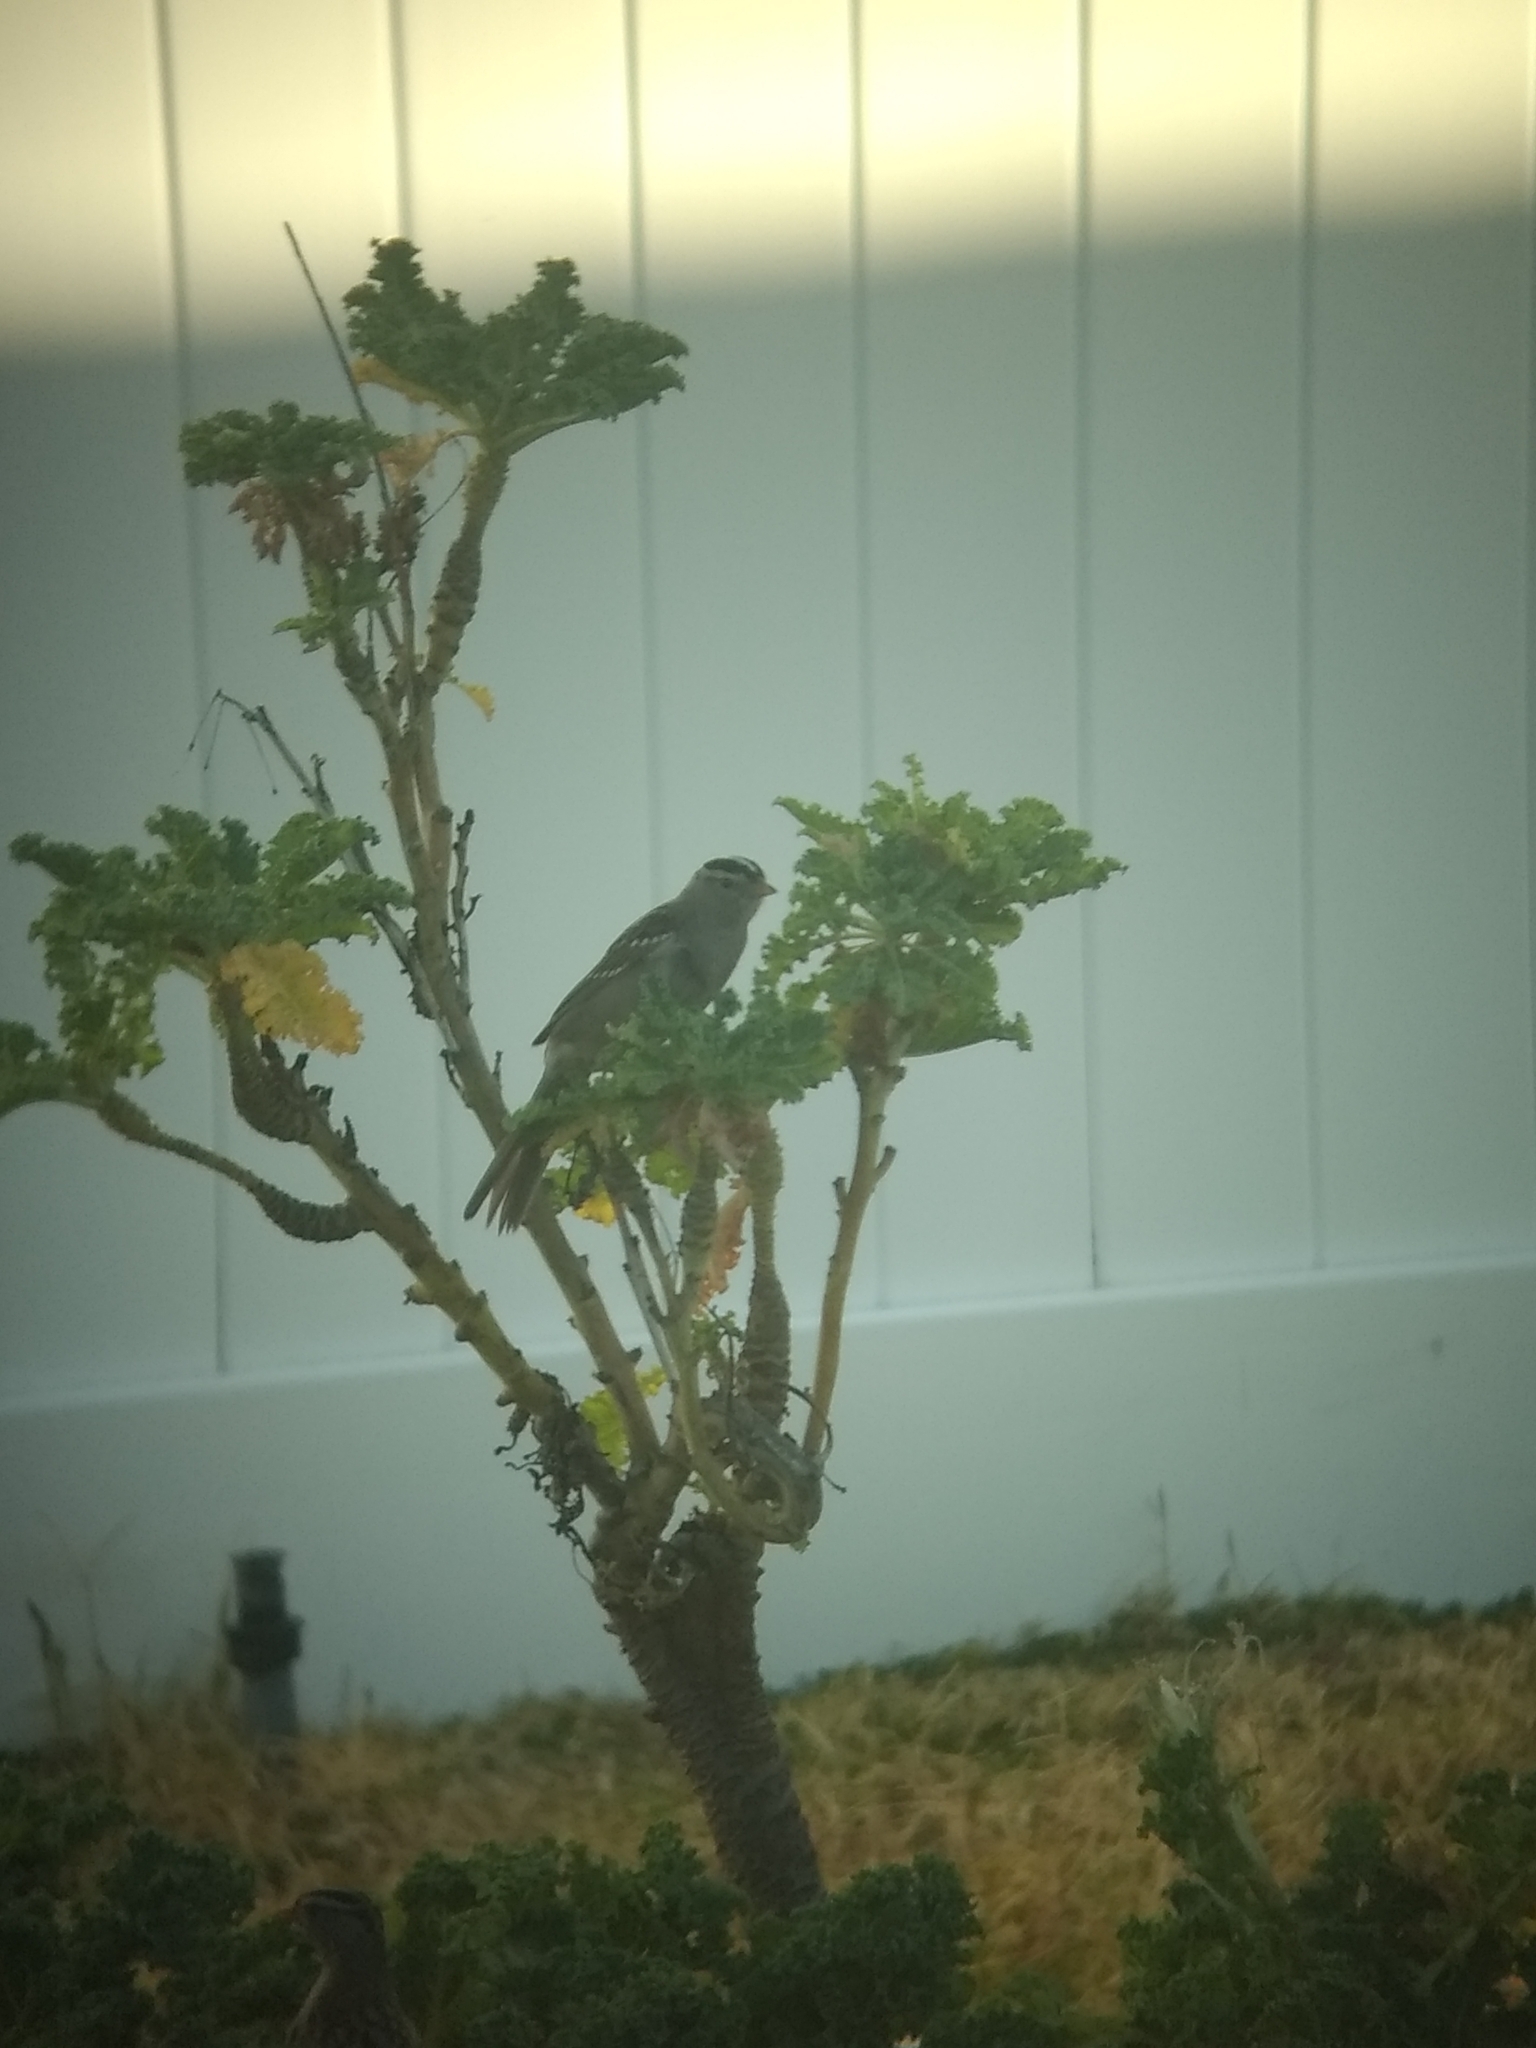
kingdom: Animalia
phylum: Chordata
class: Aves
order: Passeriformes
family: Passerellidae
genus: Zonotrichia
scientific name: Zonotrichia leucophrys
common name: White-crowned sparrow
